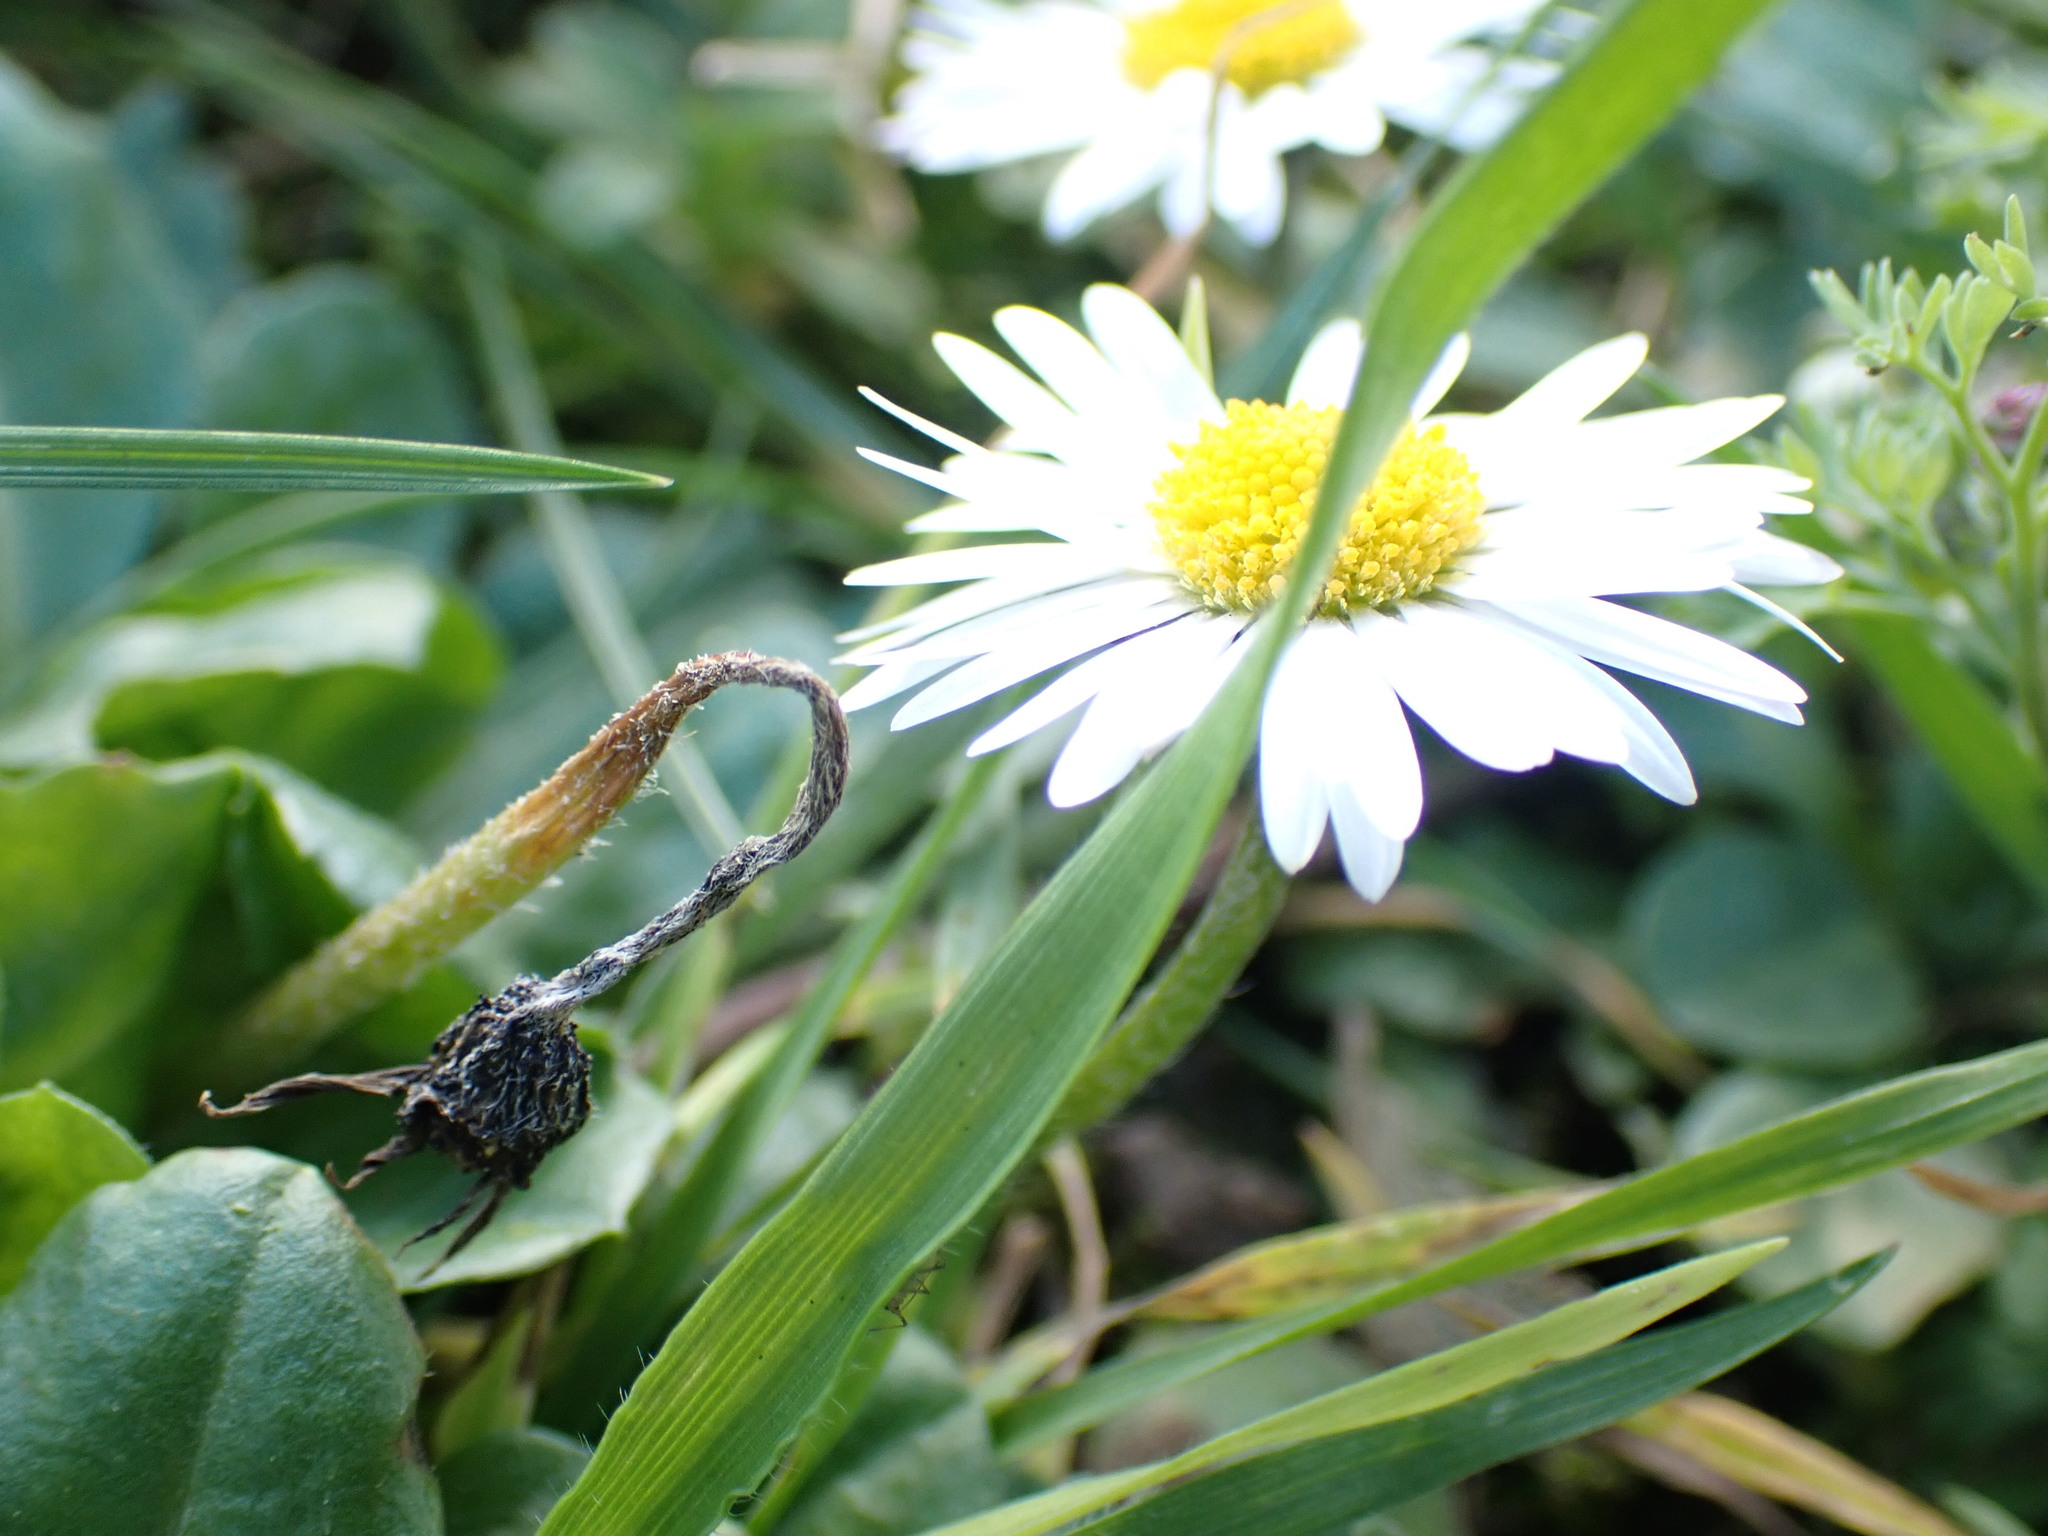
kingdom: Plantae
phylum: Tracheophyta
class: Magnoliopsida
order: Asterales
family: Asteraceae
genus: Bellis
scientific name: Bellis perennis
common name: Lawndaisy
